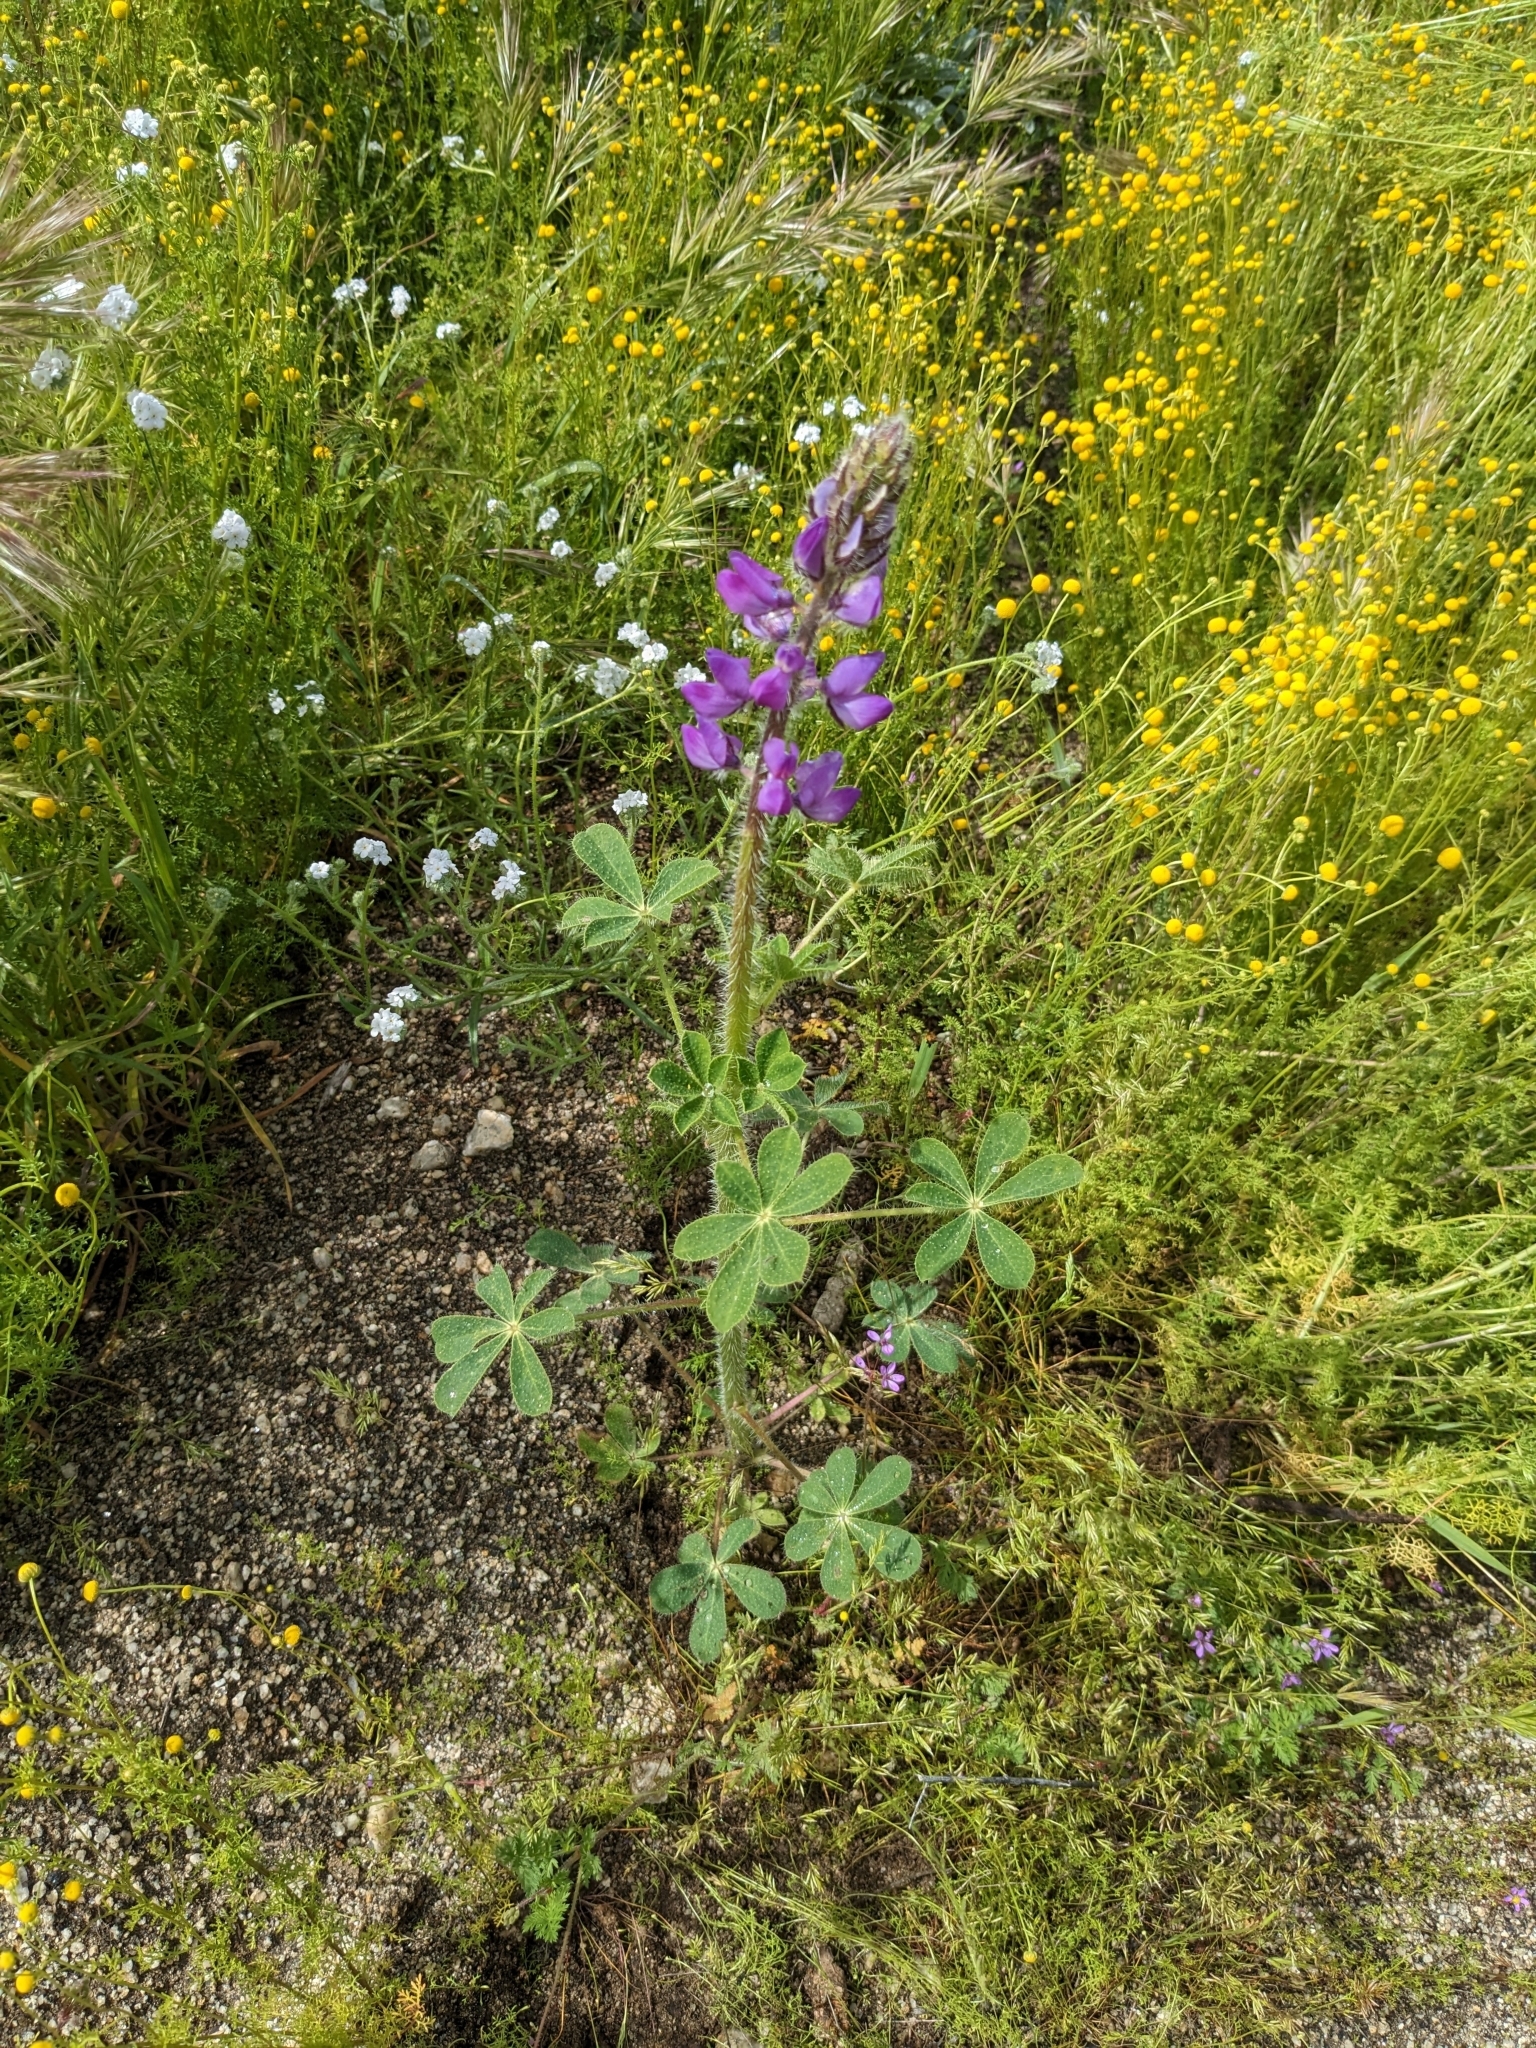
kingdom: Plantae
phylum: Tracheophyta
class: Magnoliopsida
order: Fabales
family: Fabaceae
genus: Lupinus
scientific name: Lupinus hirsutissimus
